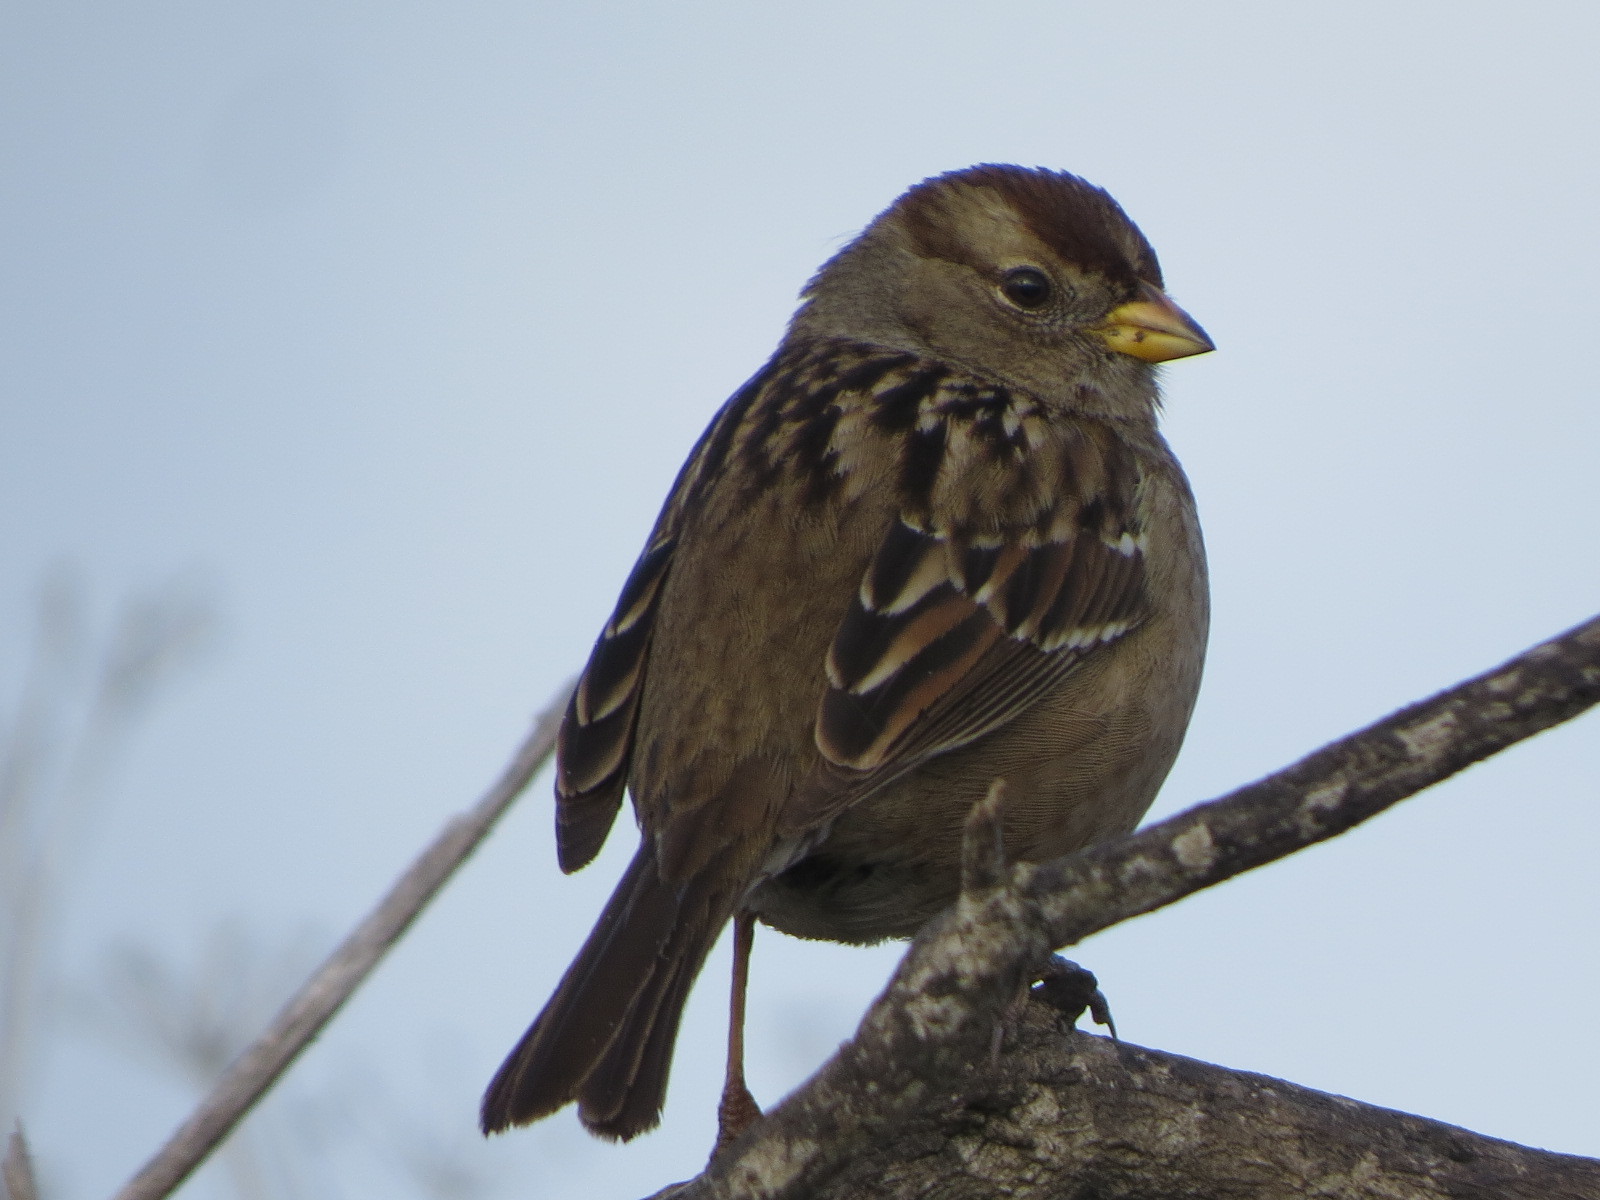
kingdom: Animalia
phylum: Chordata
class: Aves
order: Passeriformes
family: Passerellidae
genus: Zonotrichia
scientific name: Zonotrichia leucophrys
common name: White-crowned sparrow
